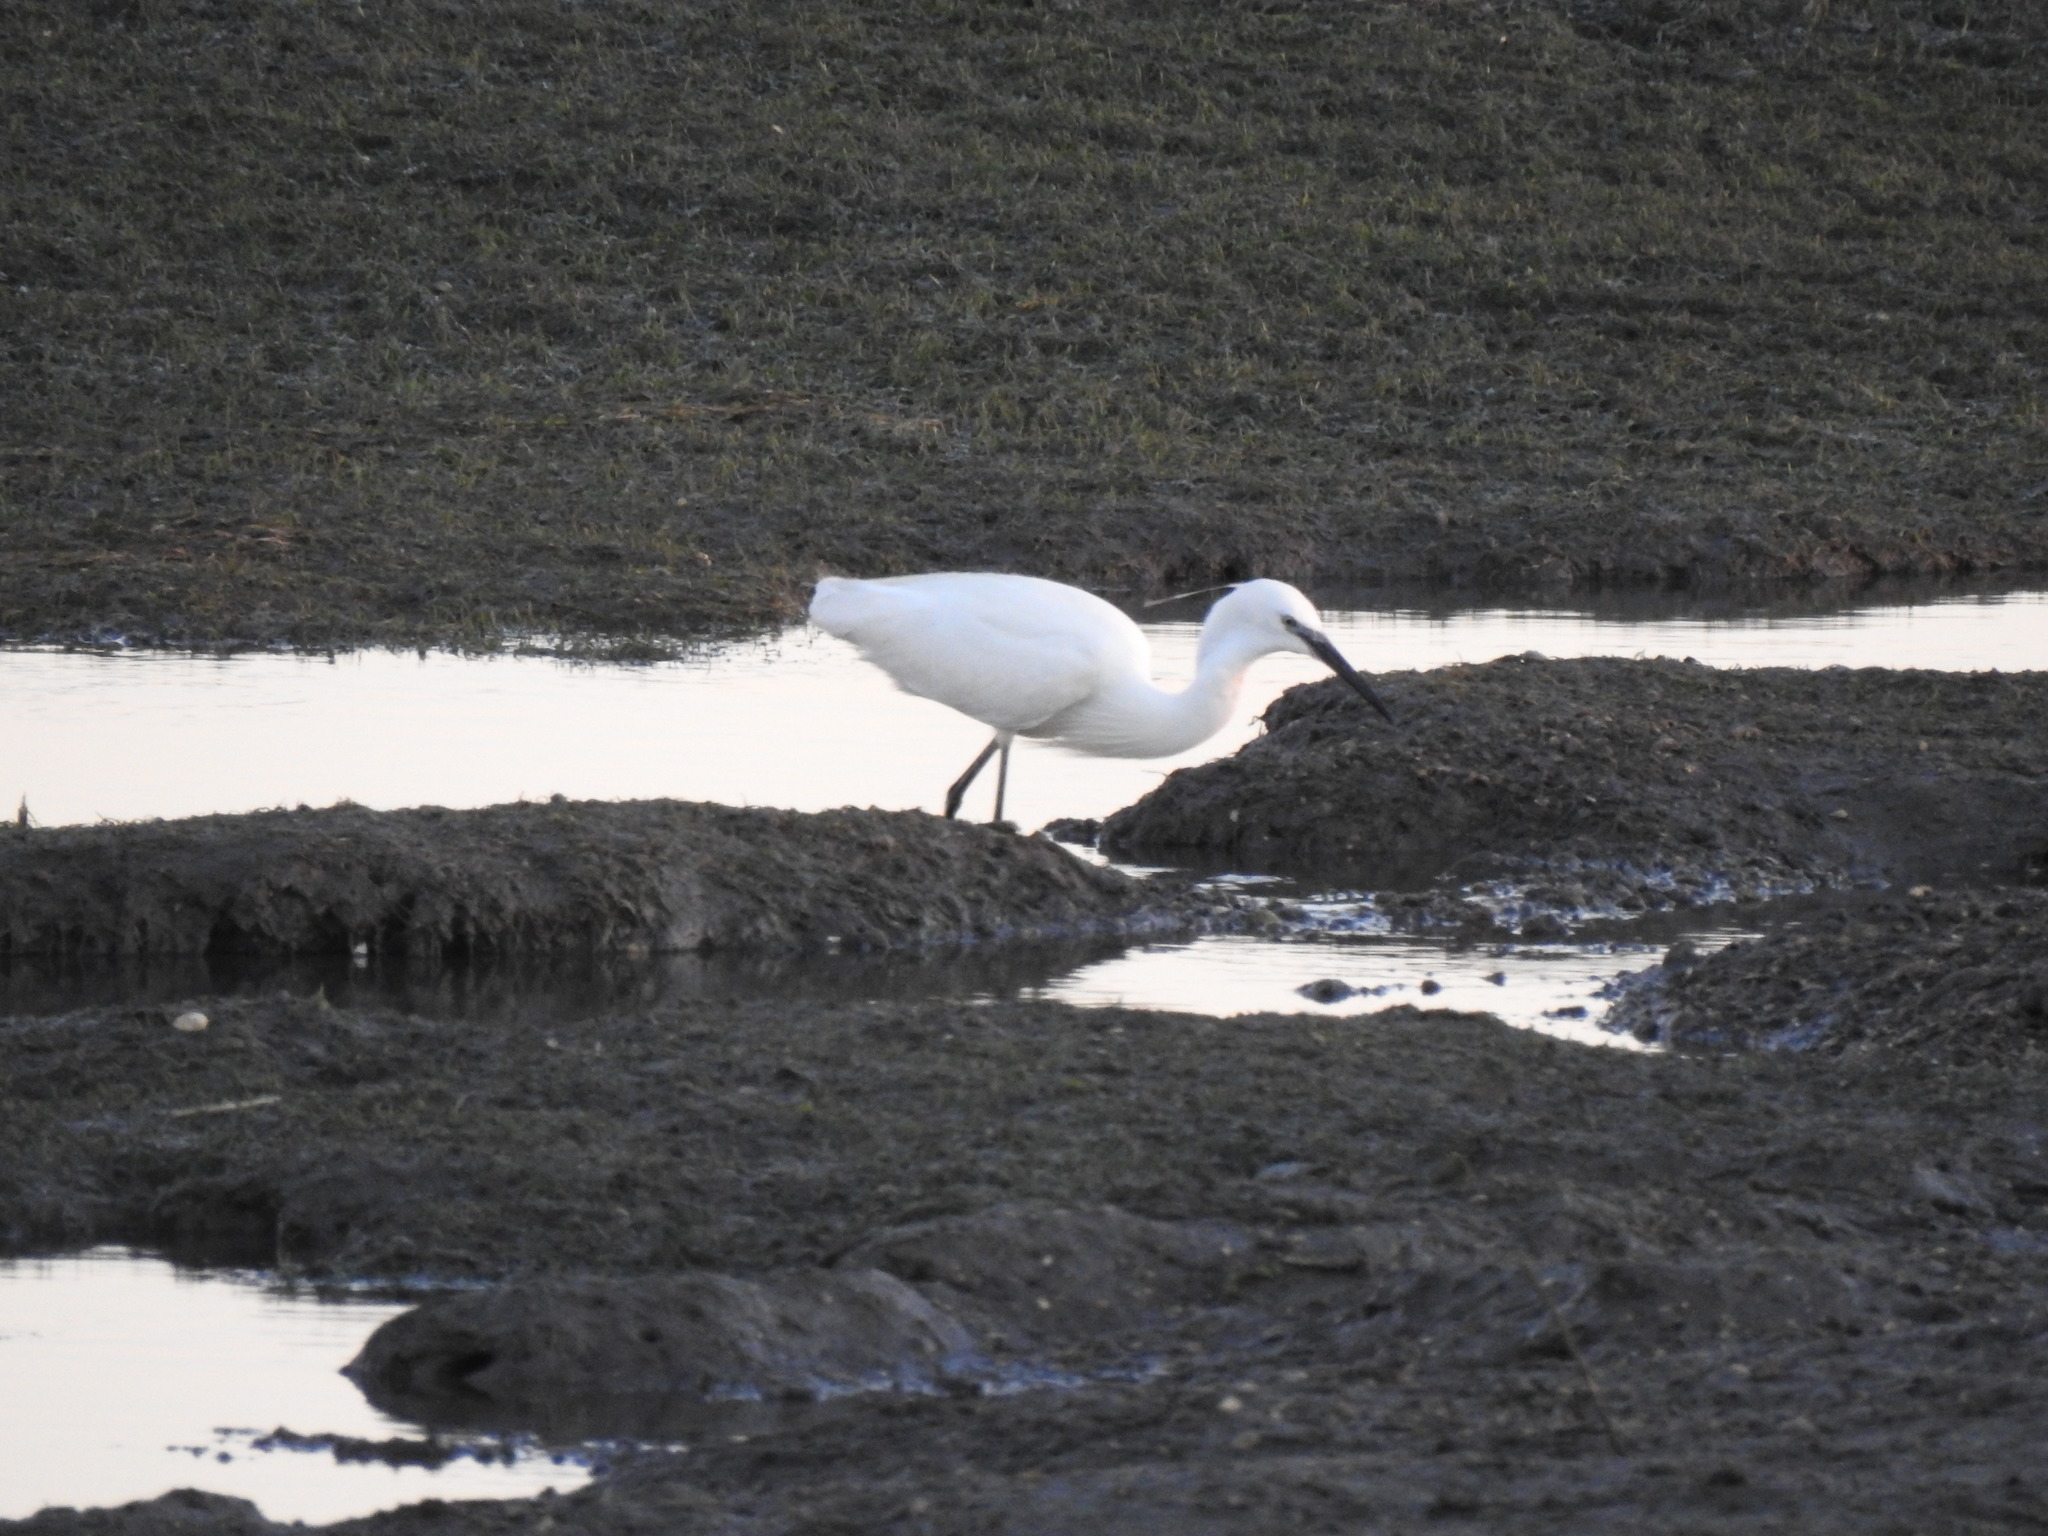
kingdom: Animalia
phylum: Chordata
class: Aves
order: Pelecaniformes
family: Ardeidae
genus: Egretta
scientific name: Egretta garzetta
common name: Little egret
